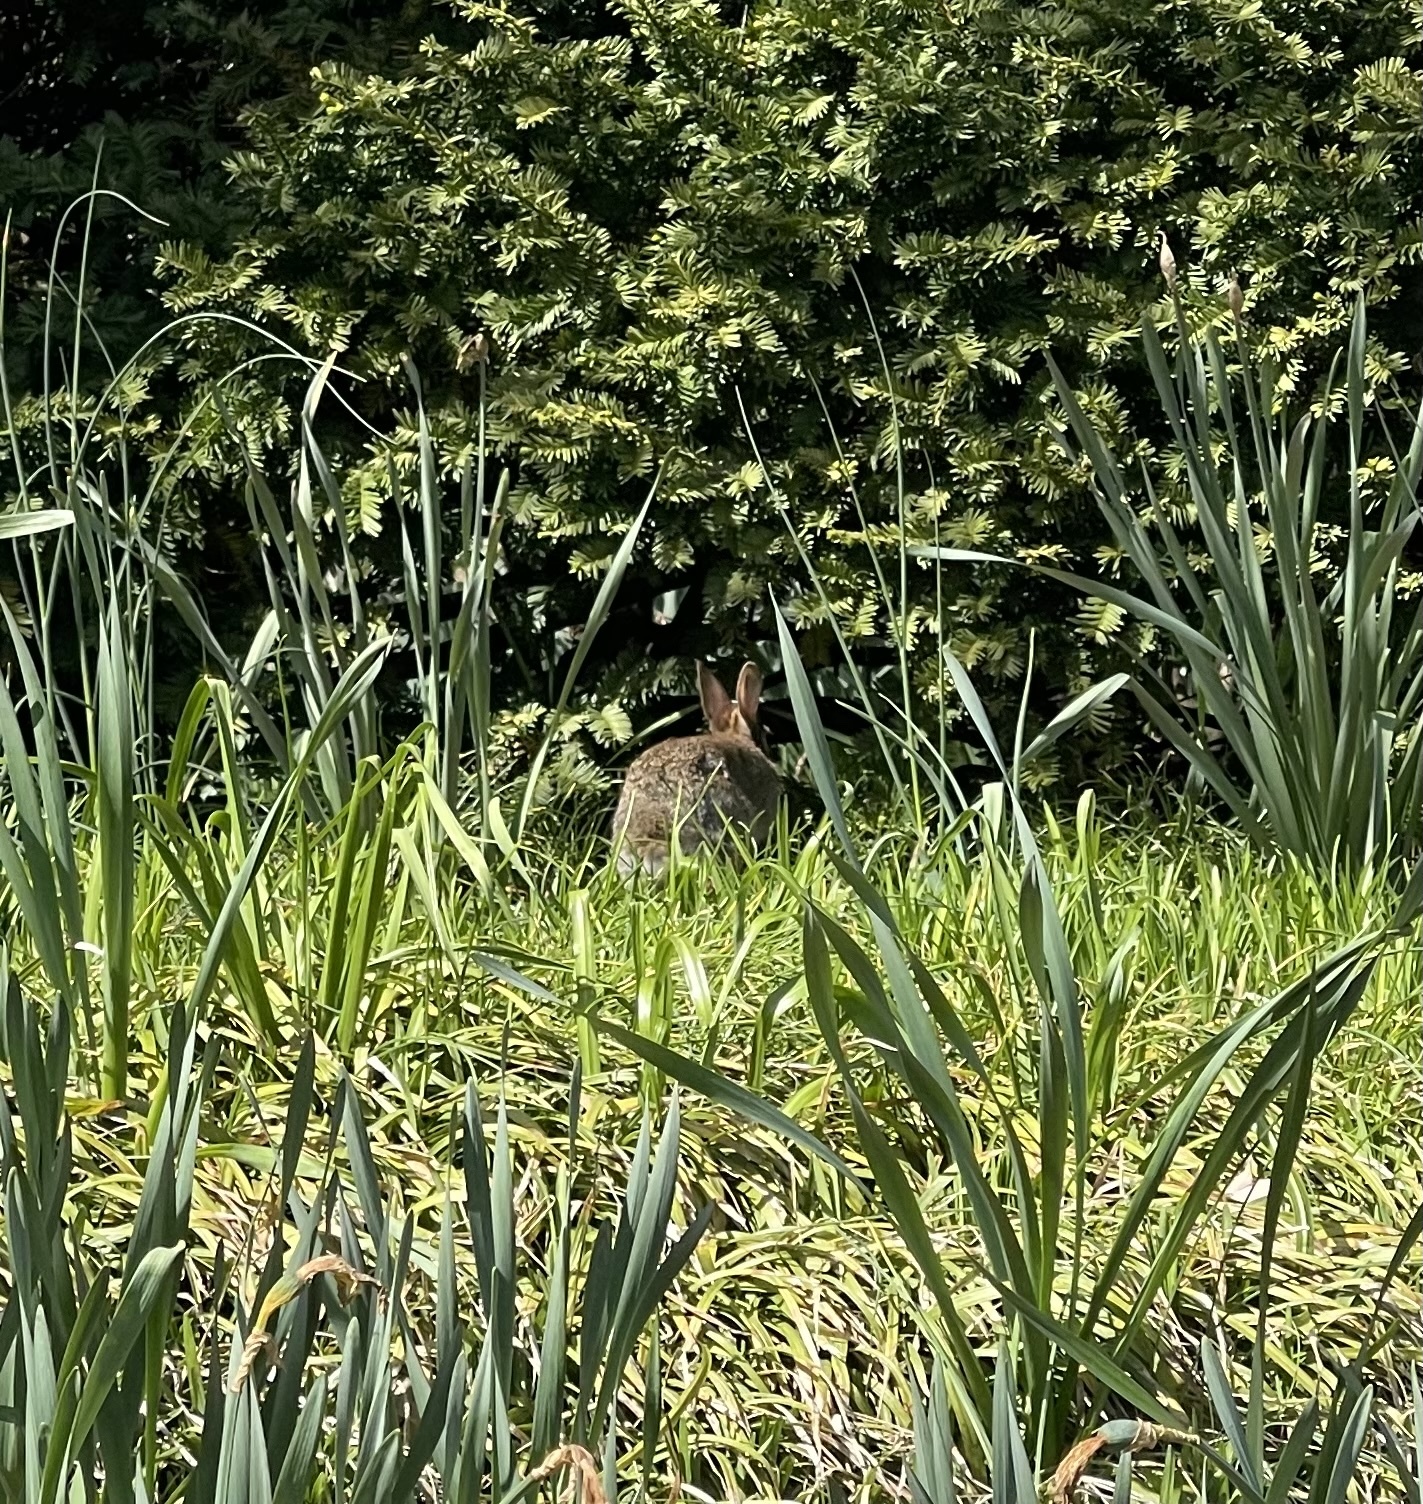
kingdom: Animalia
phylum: Chordata
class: Mammalia
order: Lagomorpha
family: Leporidae
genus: Sylvilagus
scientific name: Sylvilagus floridanus
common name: Eastern cottontail
